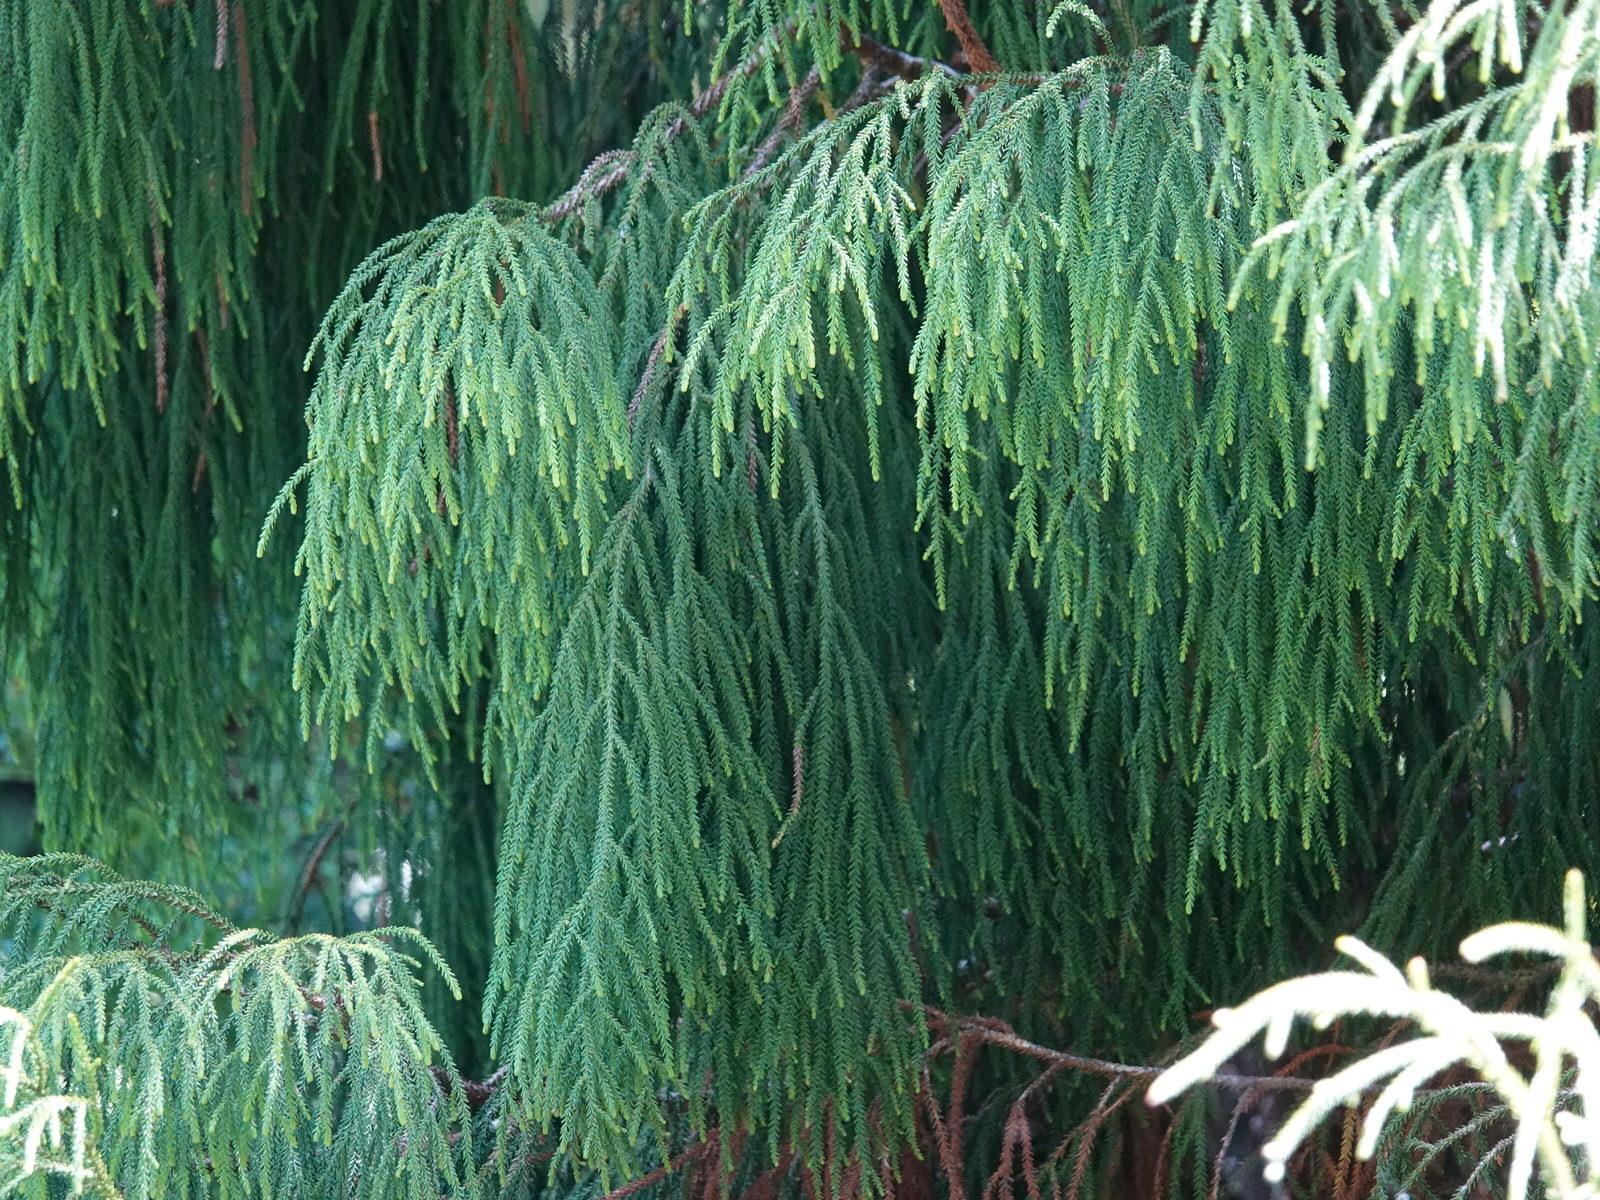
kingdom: Plantae
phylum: Tracheophyta
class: Pinopsida
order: Pinales
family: Podocarpaceae
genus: Dacrydium
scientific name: Dacrydium cupressinum
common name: Red pine
